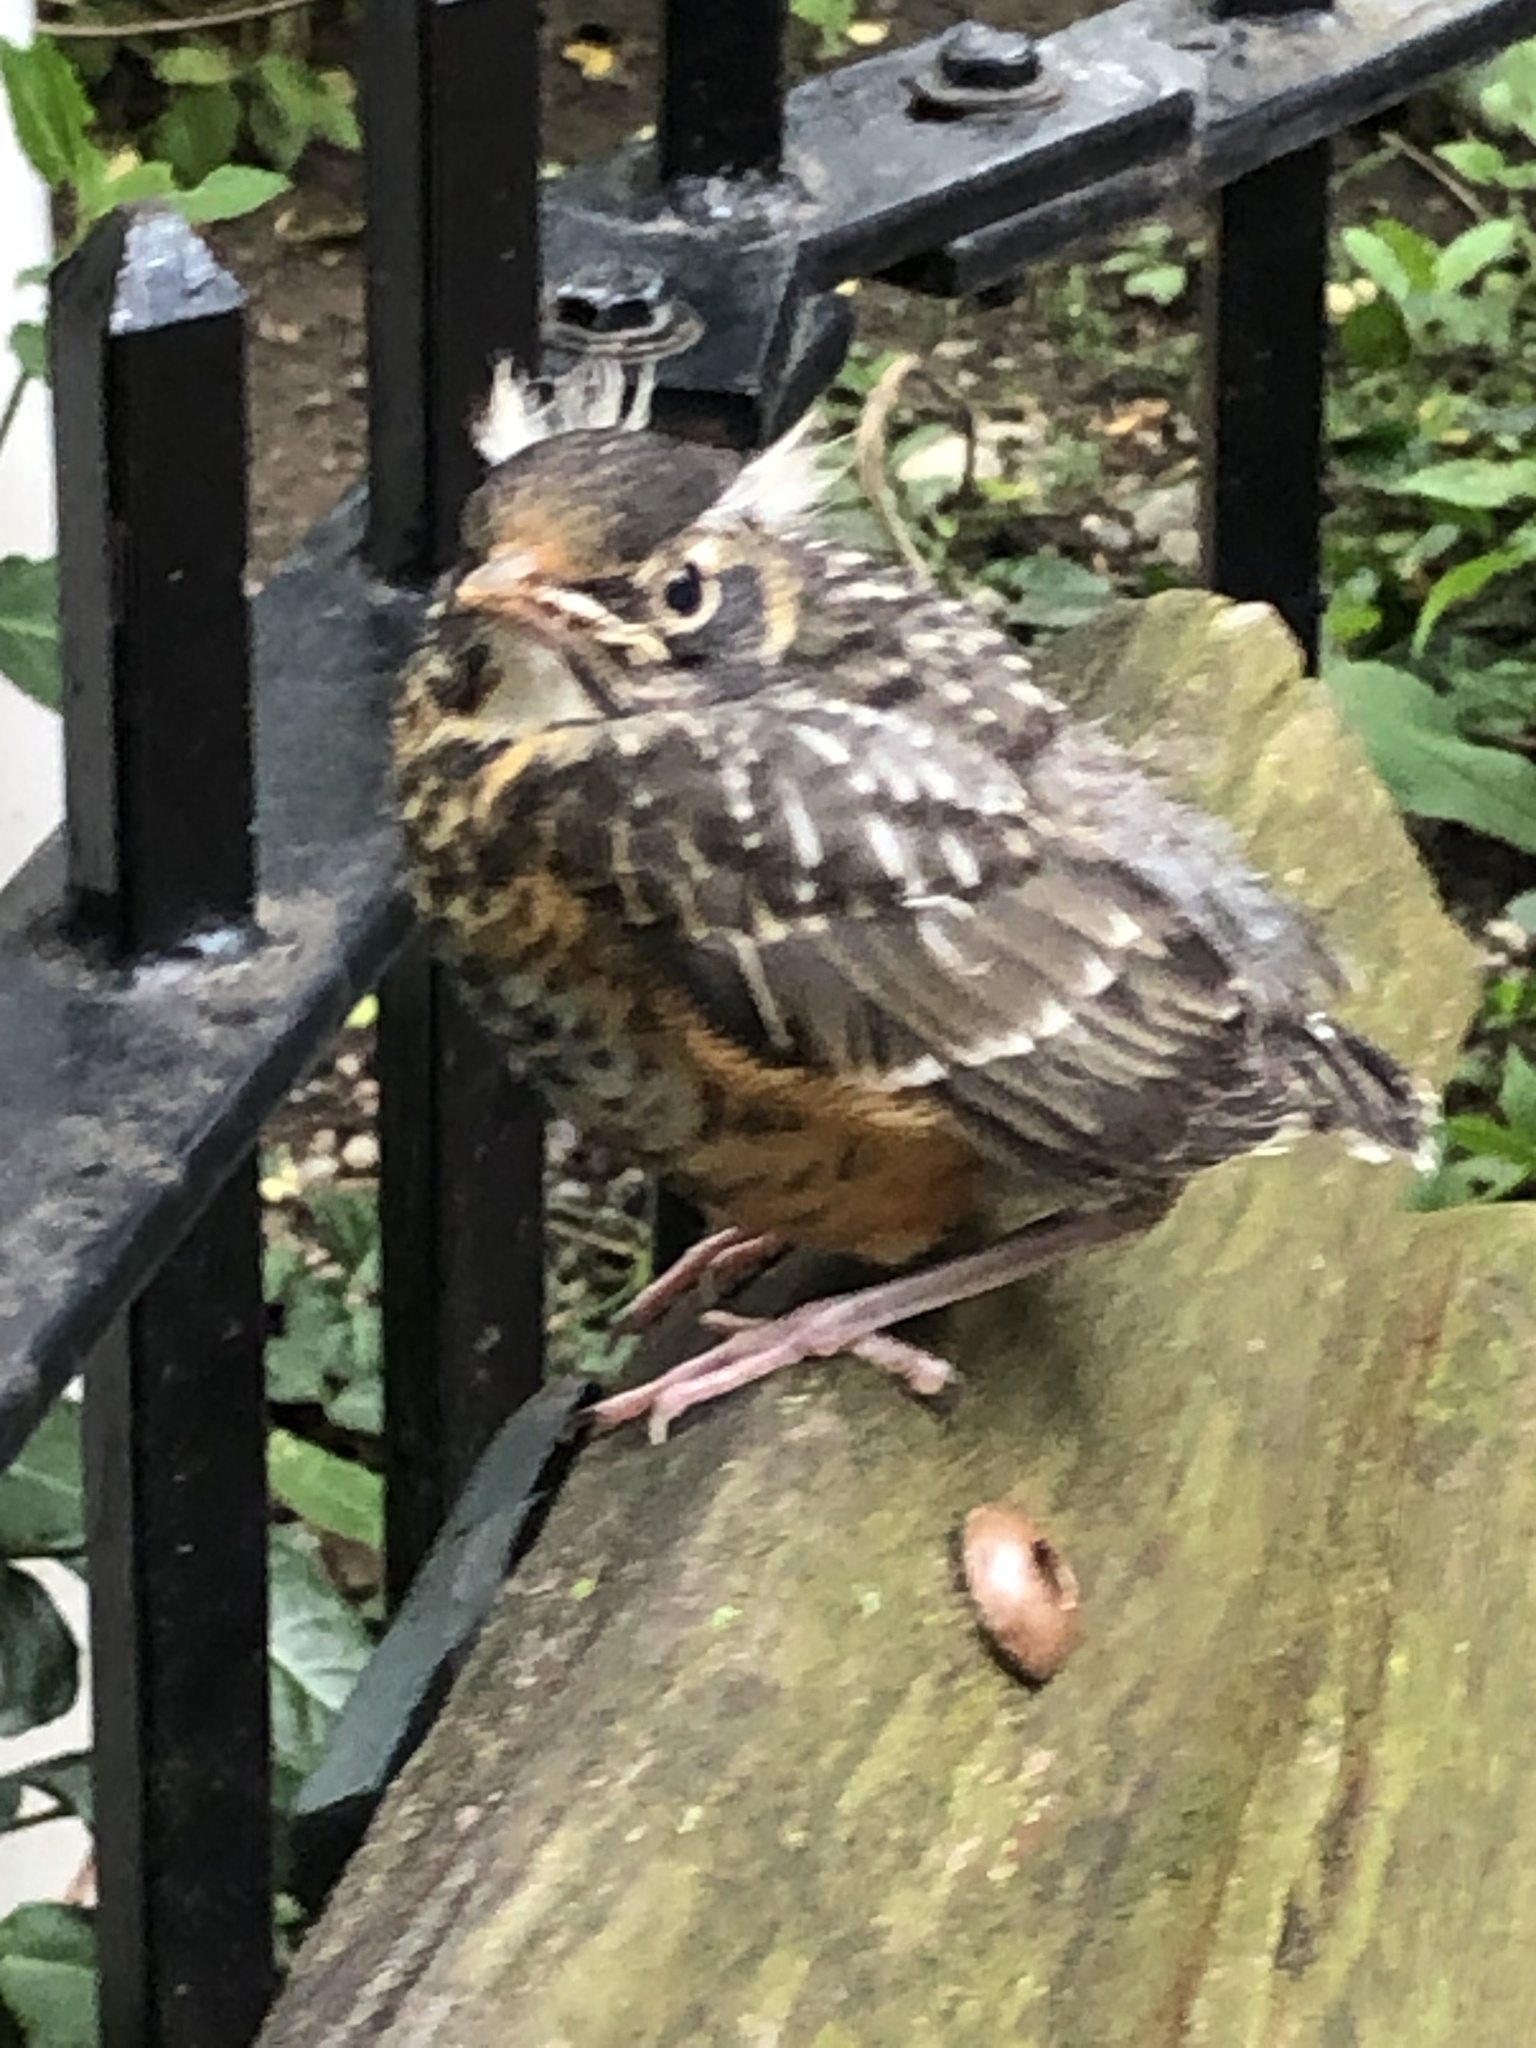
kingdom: Animalia
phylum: Chordata
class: Aves
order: Passeriformes
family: Turdidae
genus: Turdus
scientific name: Turdus migratorius
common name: American robin
